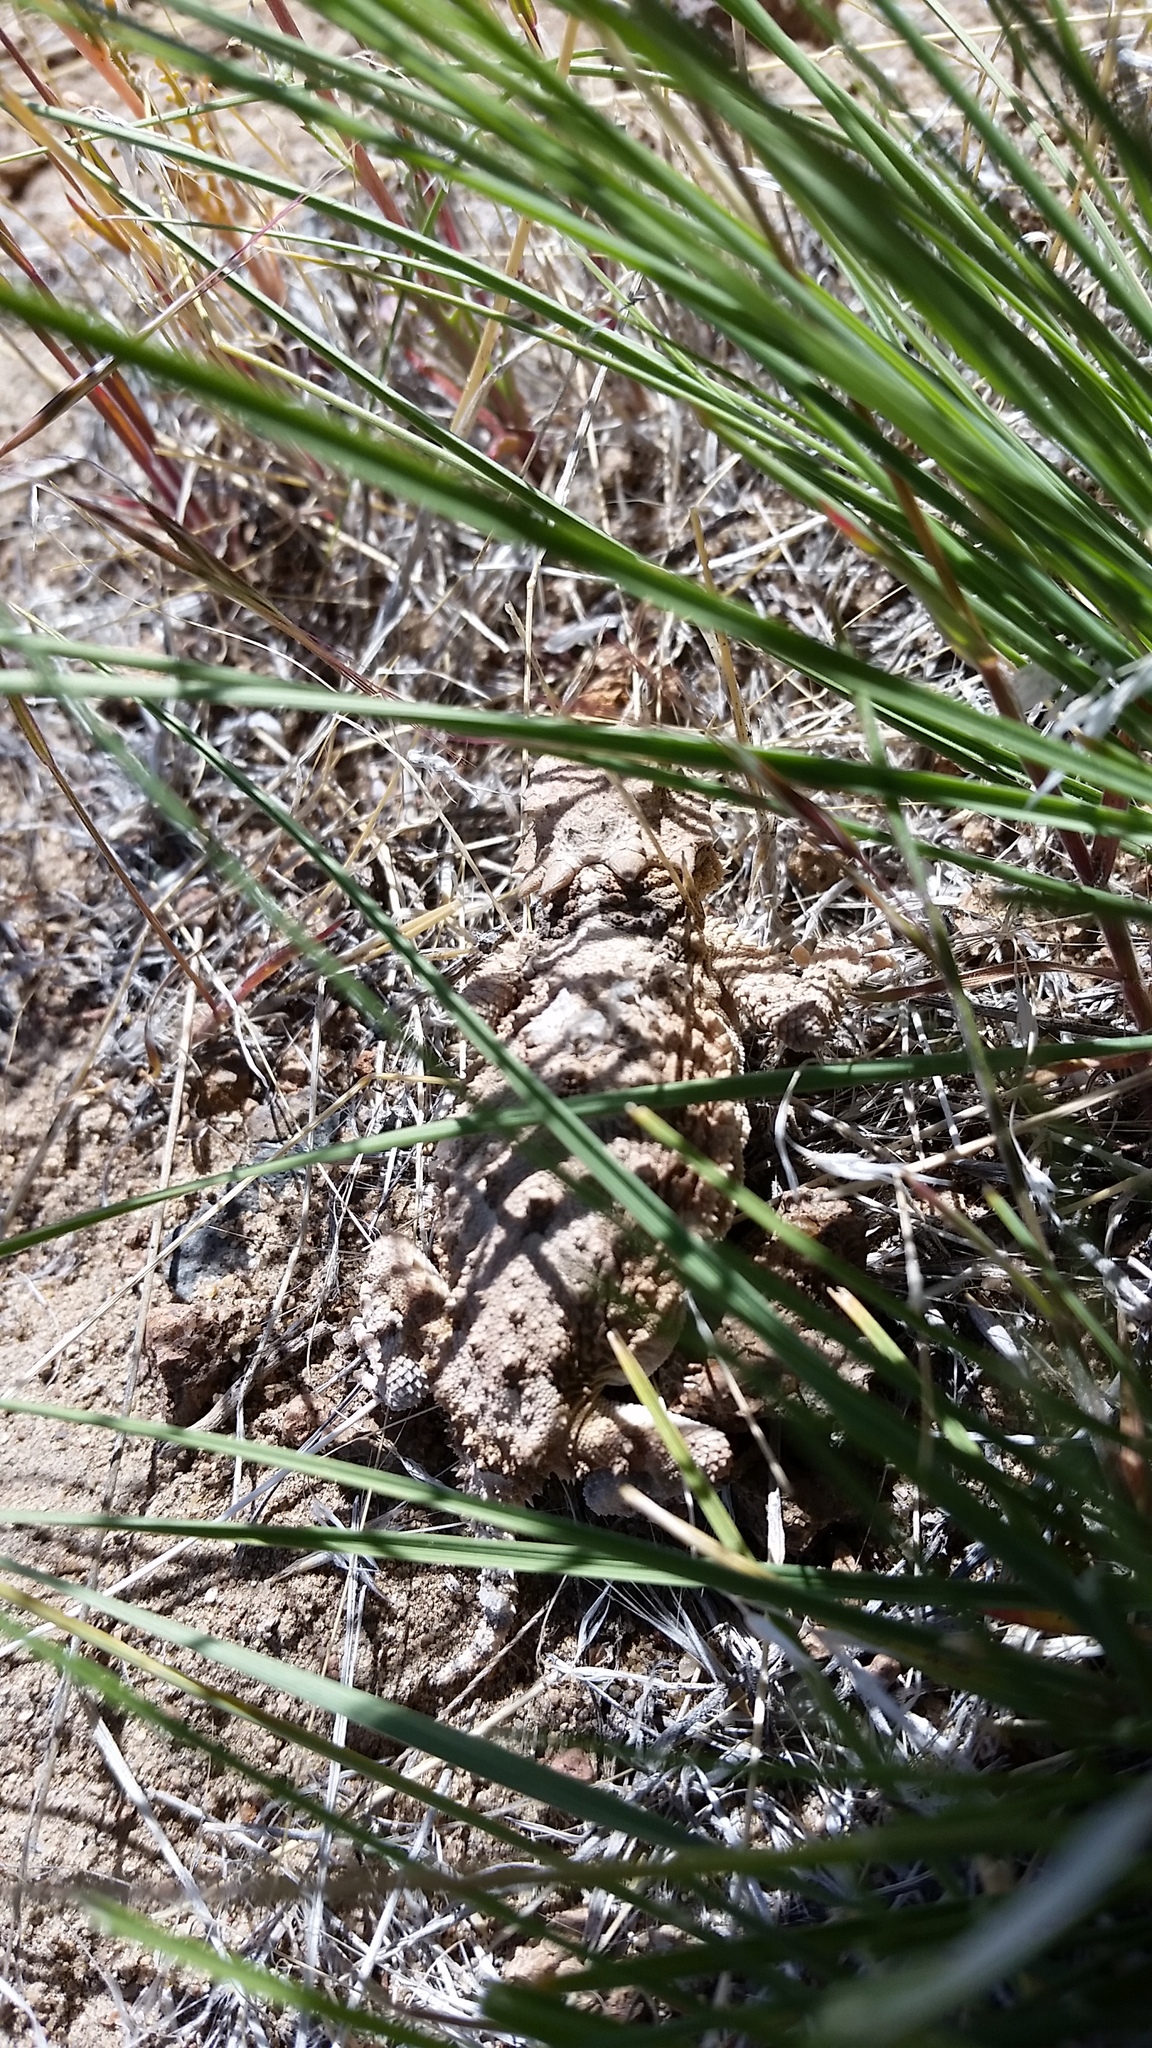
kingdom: Animalia
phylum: Chordata
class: Squamata
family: Phrynosomatidae
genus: Phrynosoma
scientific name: Phrynosoma platyrhinos
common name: Desert horned lizard
